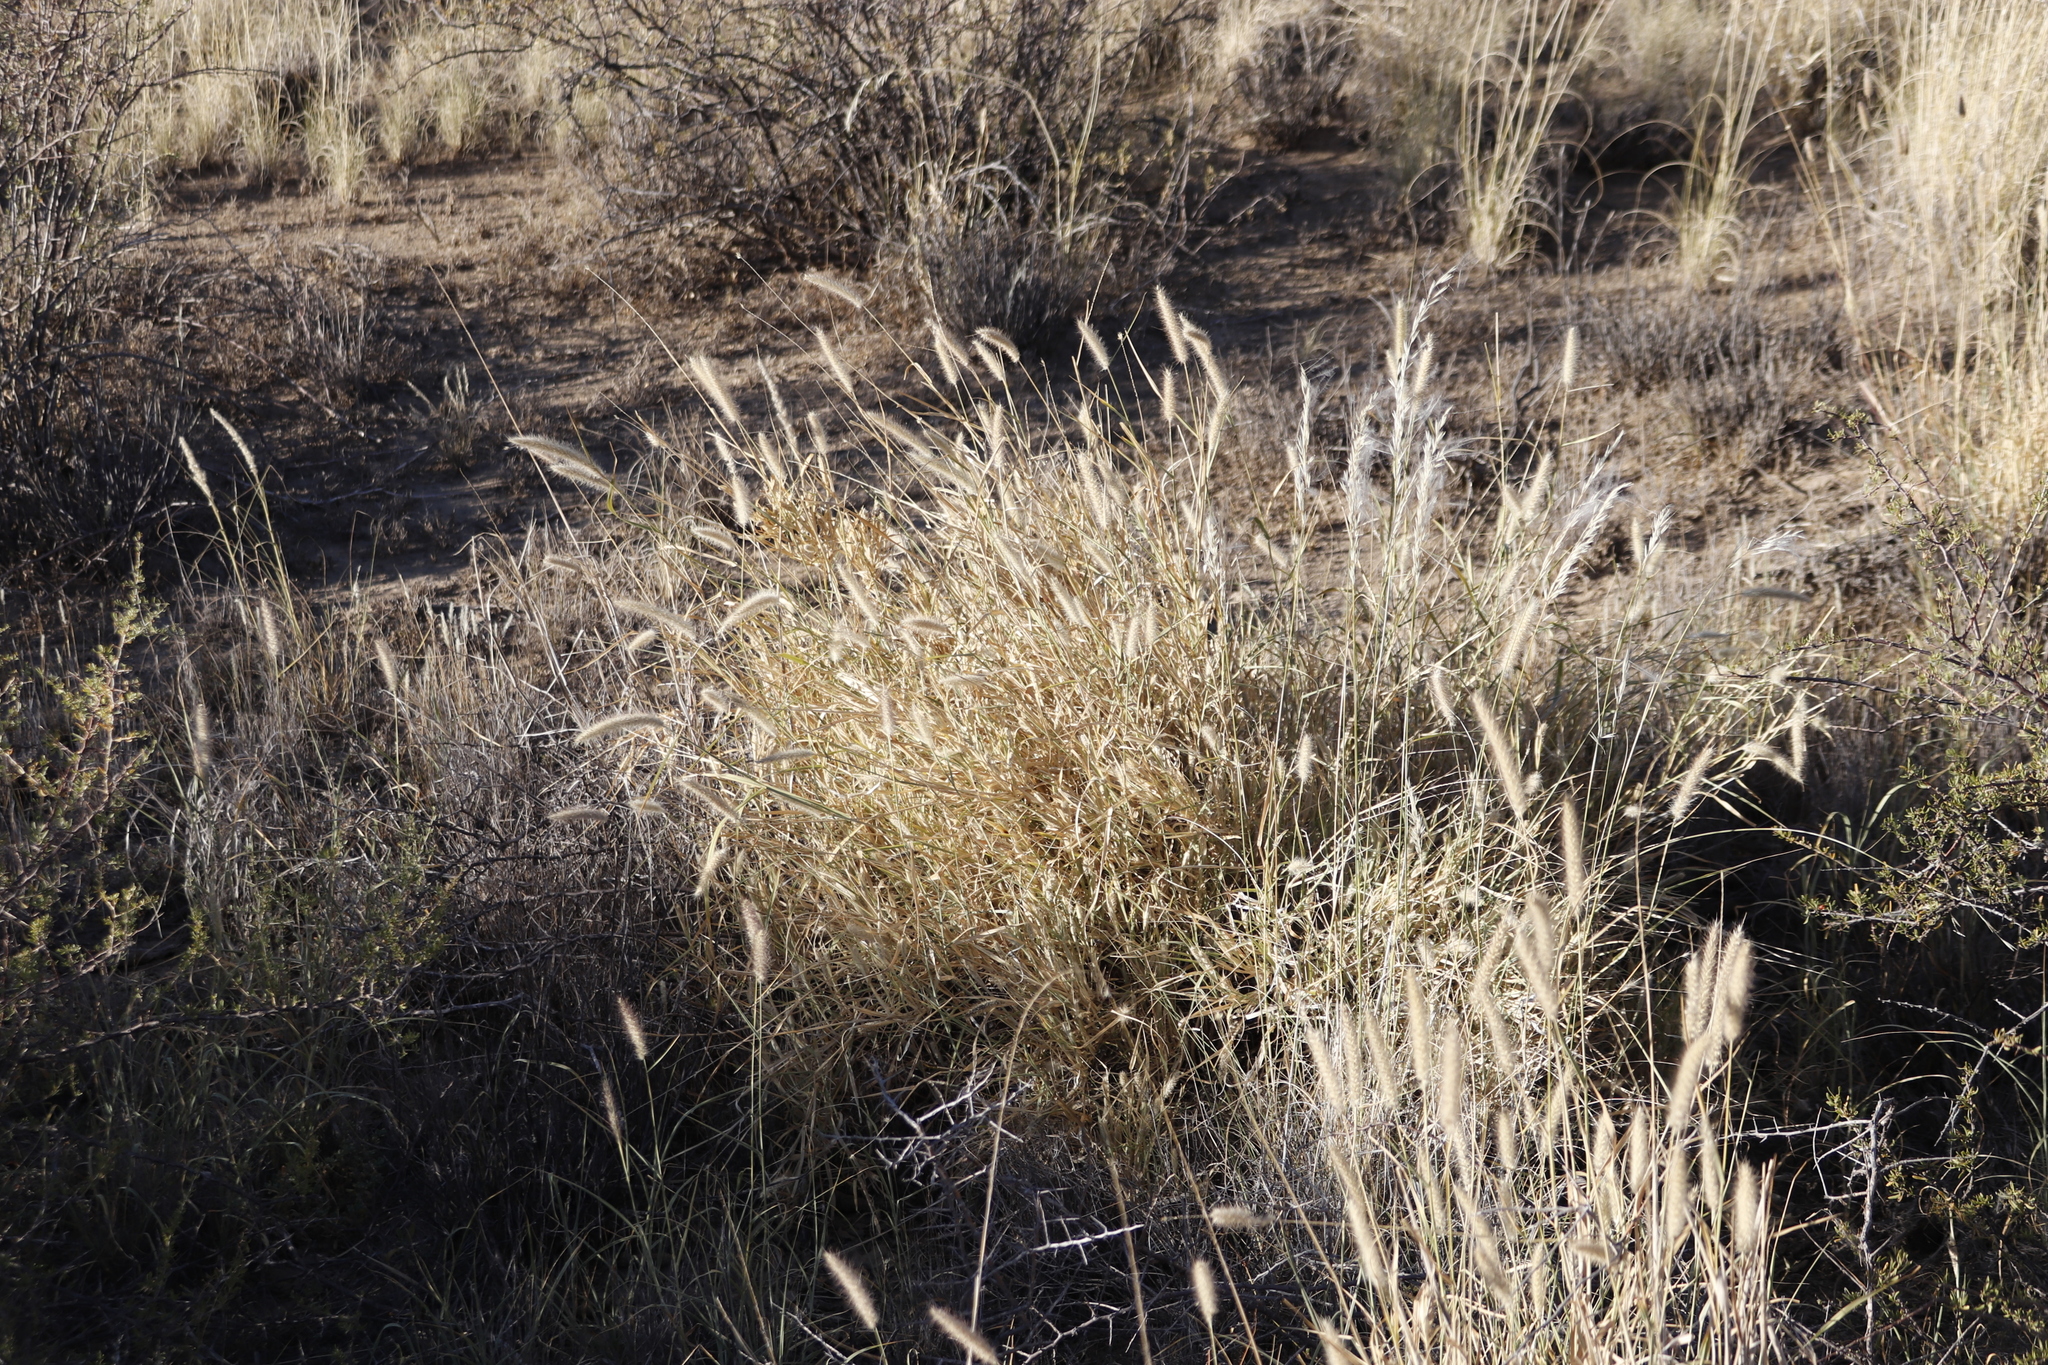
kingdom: Plantae
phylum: Tracheophyta
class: Liliopsida
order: Poales
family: Poaceae
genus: Cenchrus
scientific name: Cenchrus ciliaris
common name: Buffelgrass
